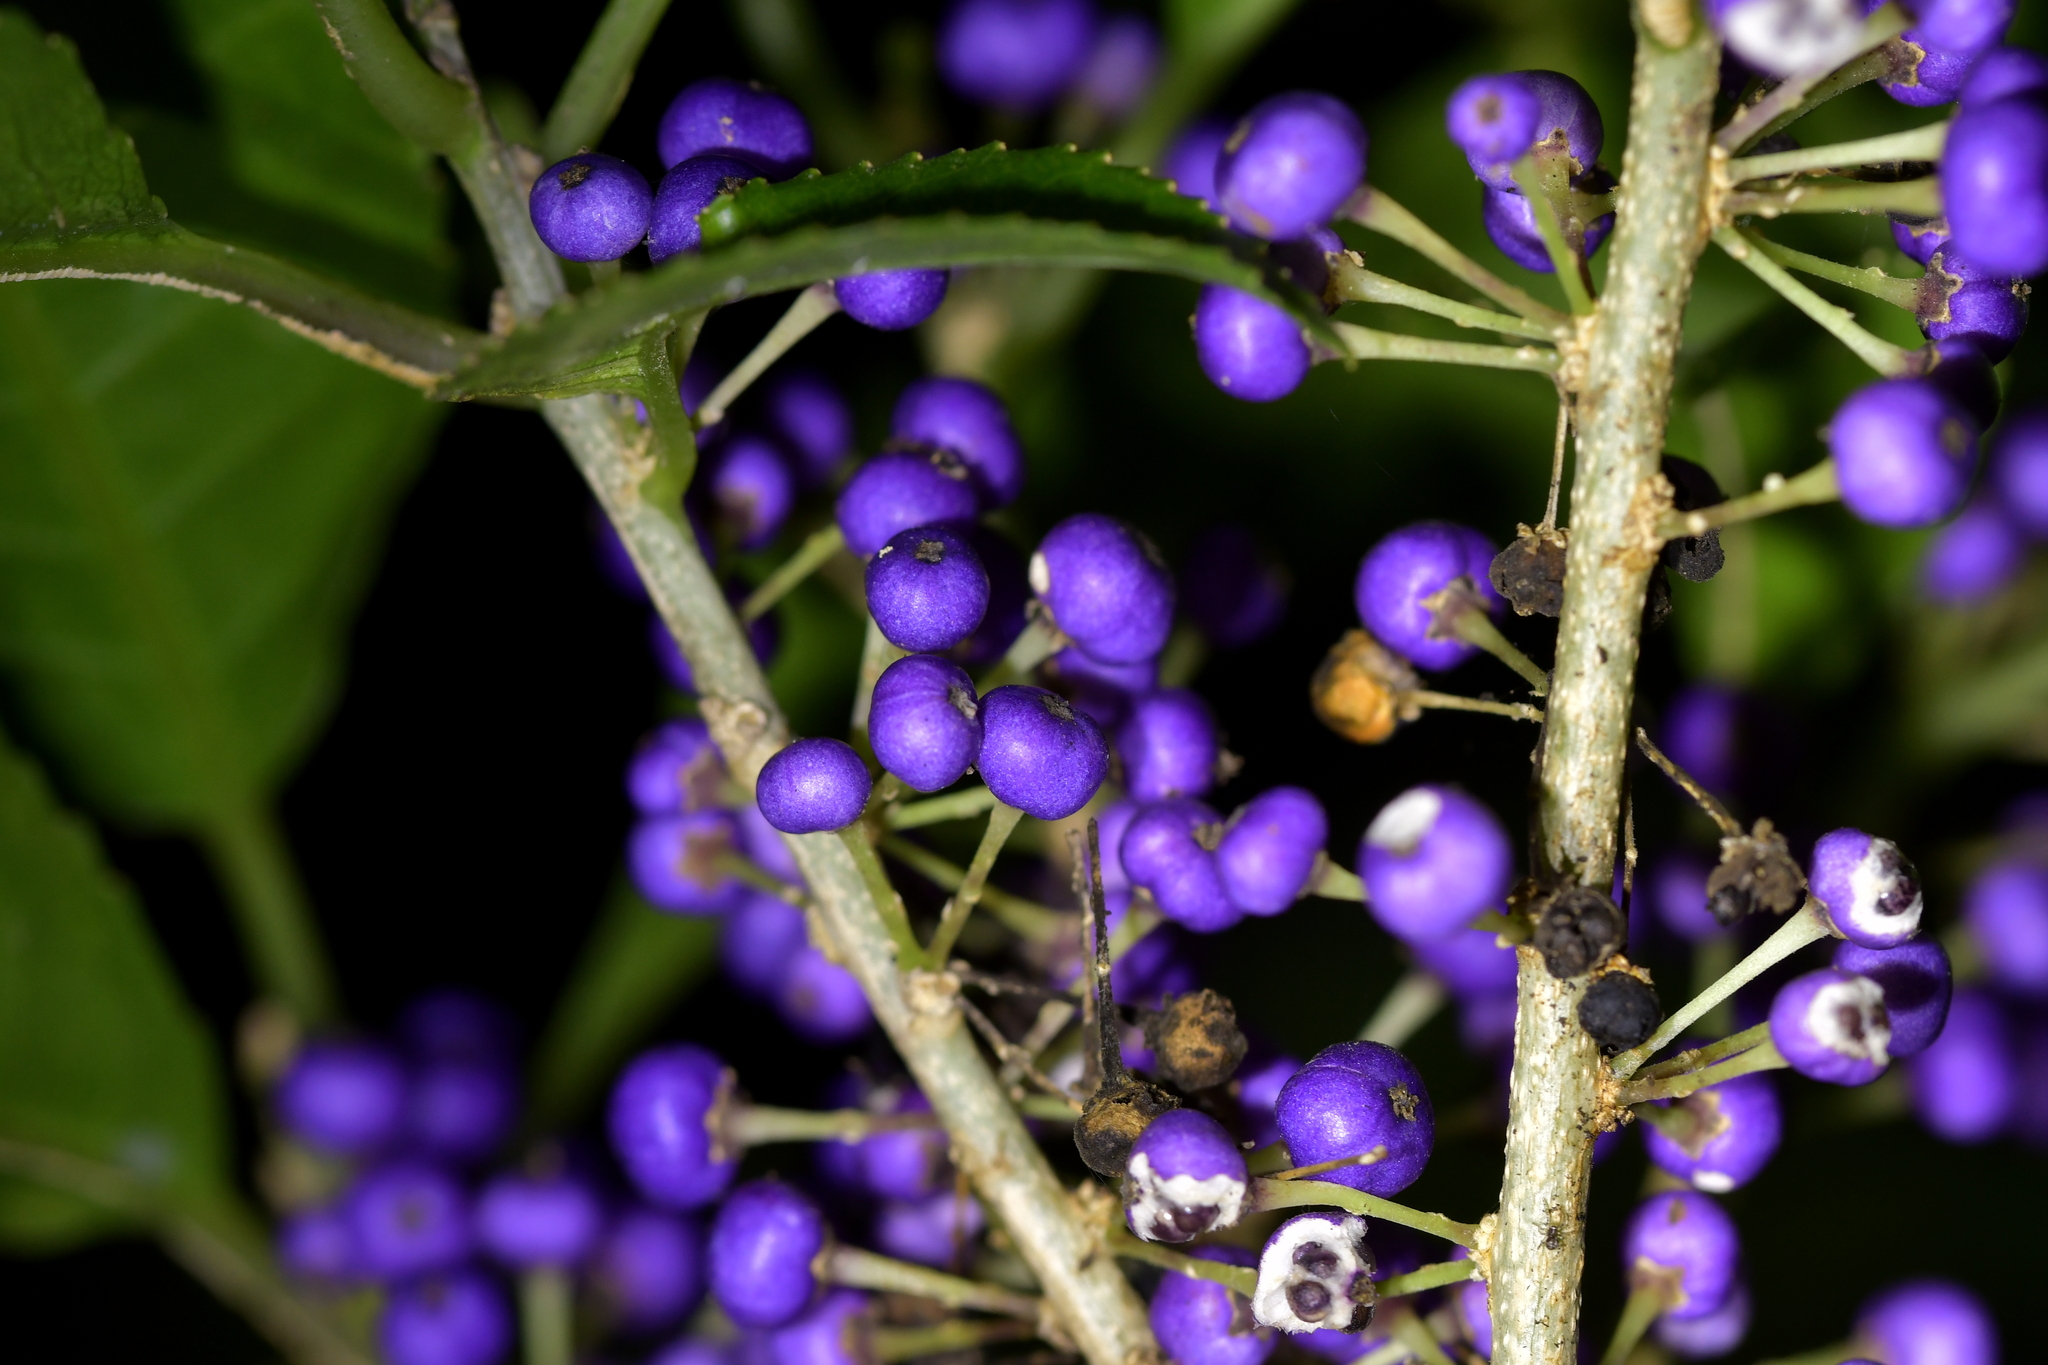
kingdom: Plantae
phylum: Tracheophyta
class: Magnoliopsida
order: Malpighiales
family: Violaceae
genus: Melicytus
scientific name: Melicytus ramiflorus
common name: Mahoe
